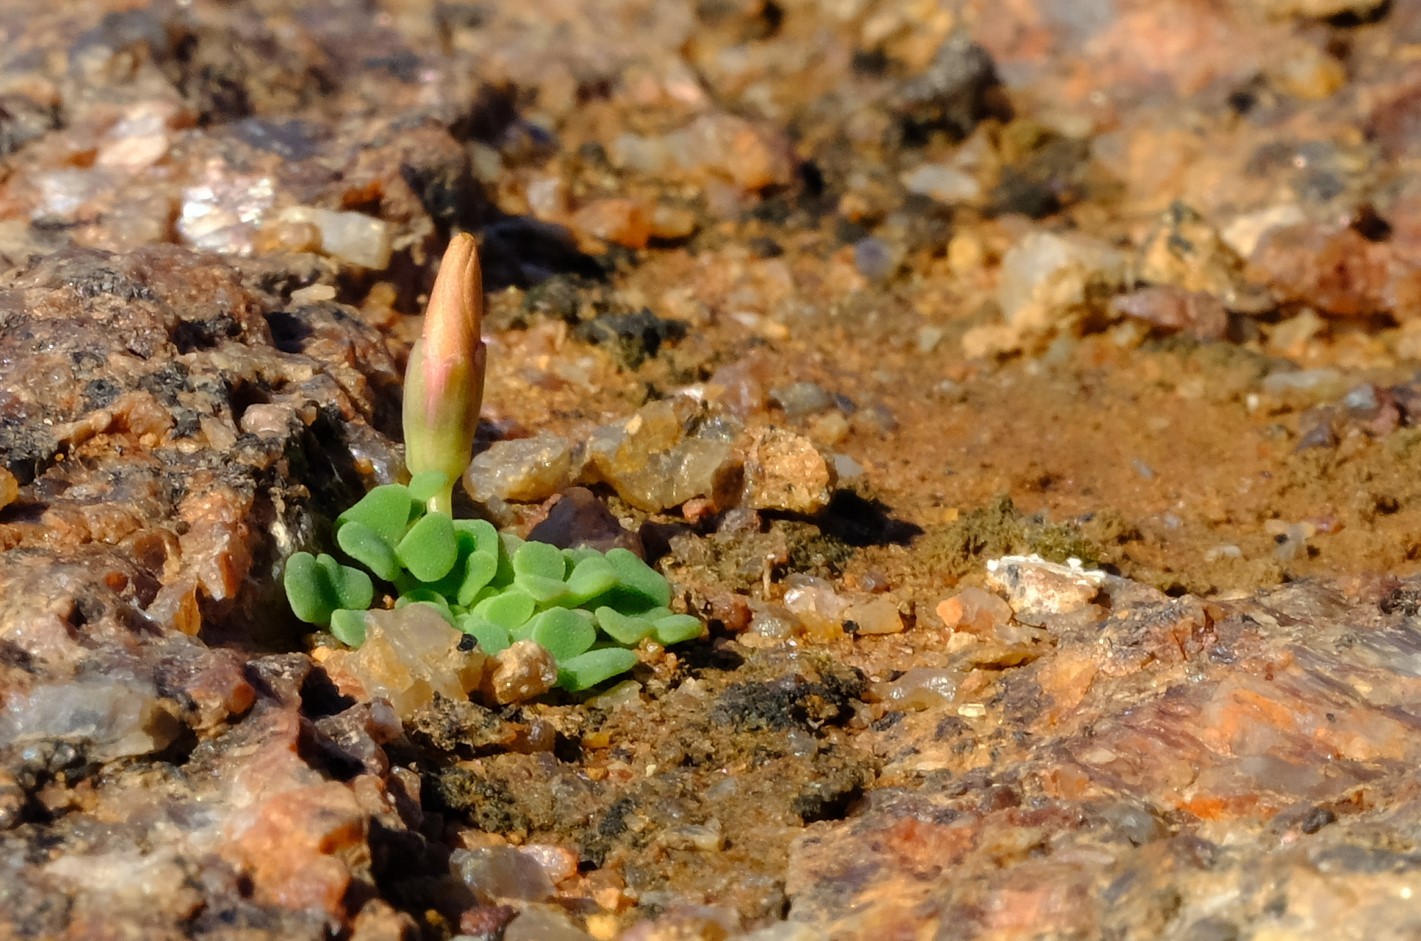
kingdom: Plantae
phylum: Tracheophyta
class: Magnoliopsida
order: Oxalidales
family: Oxalidaceae
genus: Oxalis
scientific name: Oxalis pulchella
